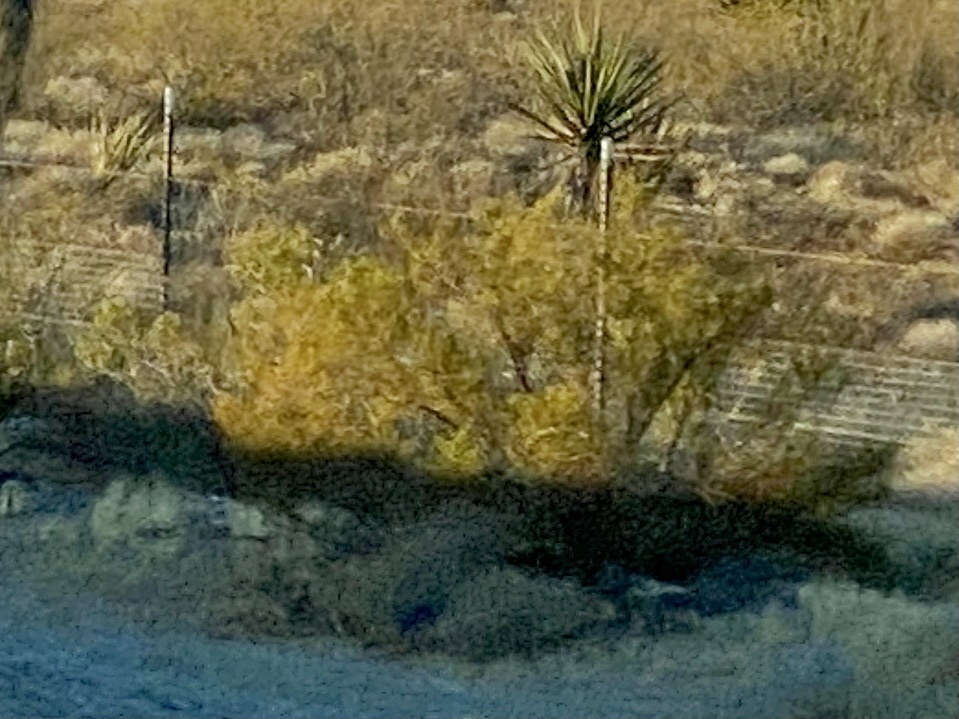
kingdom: Plantae
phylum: Tracheophyta
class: Magnoliopsida
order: Zygophyllales
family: Zygophyllaceae
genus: Larrea
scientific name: Larrea tridentata
